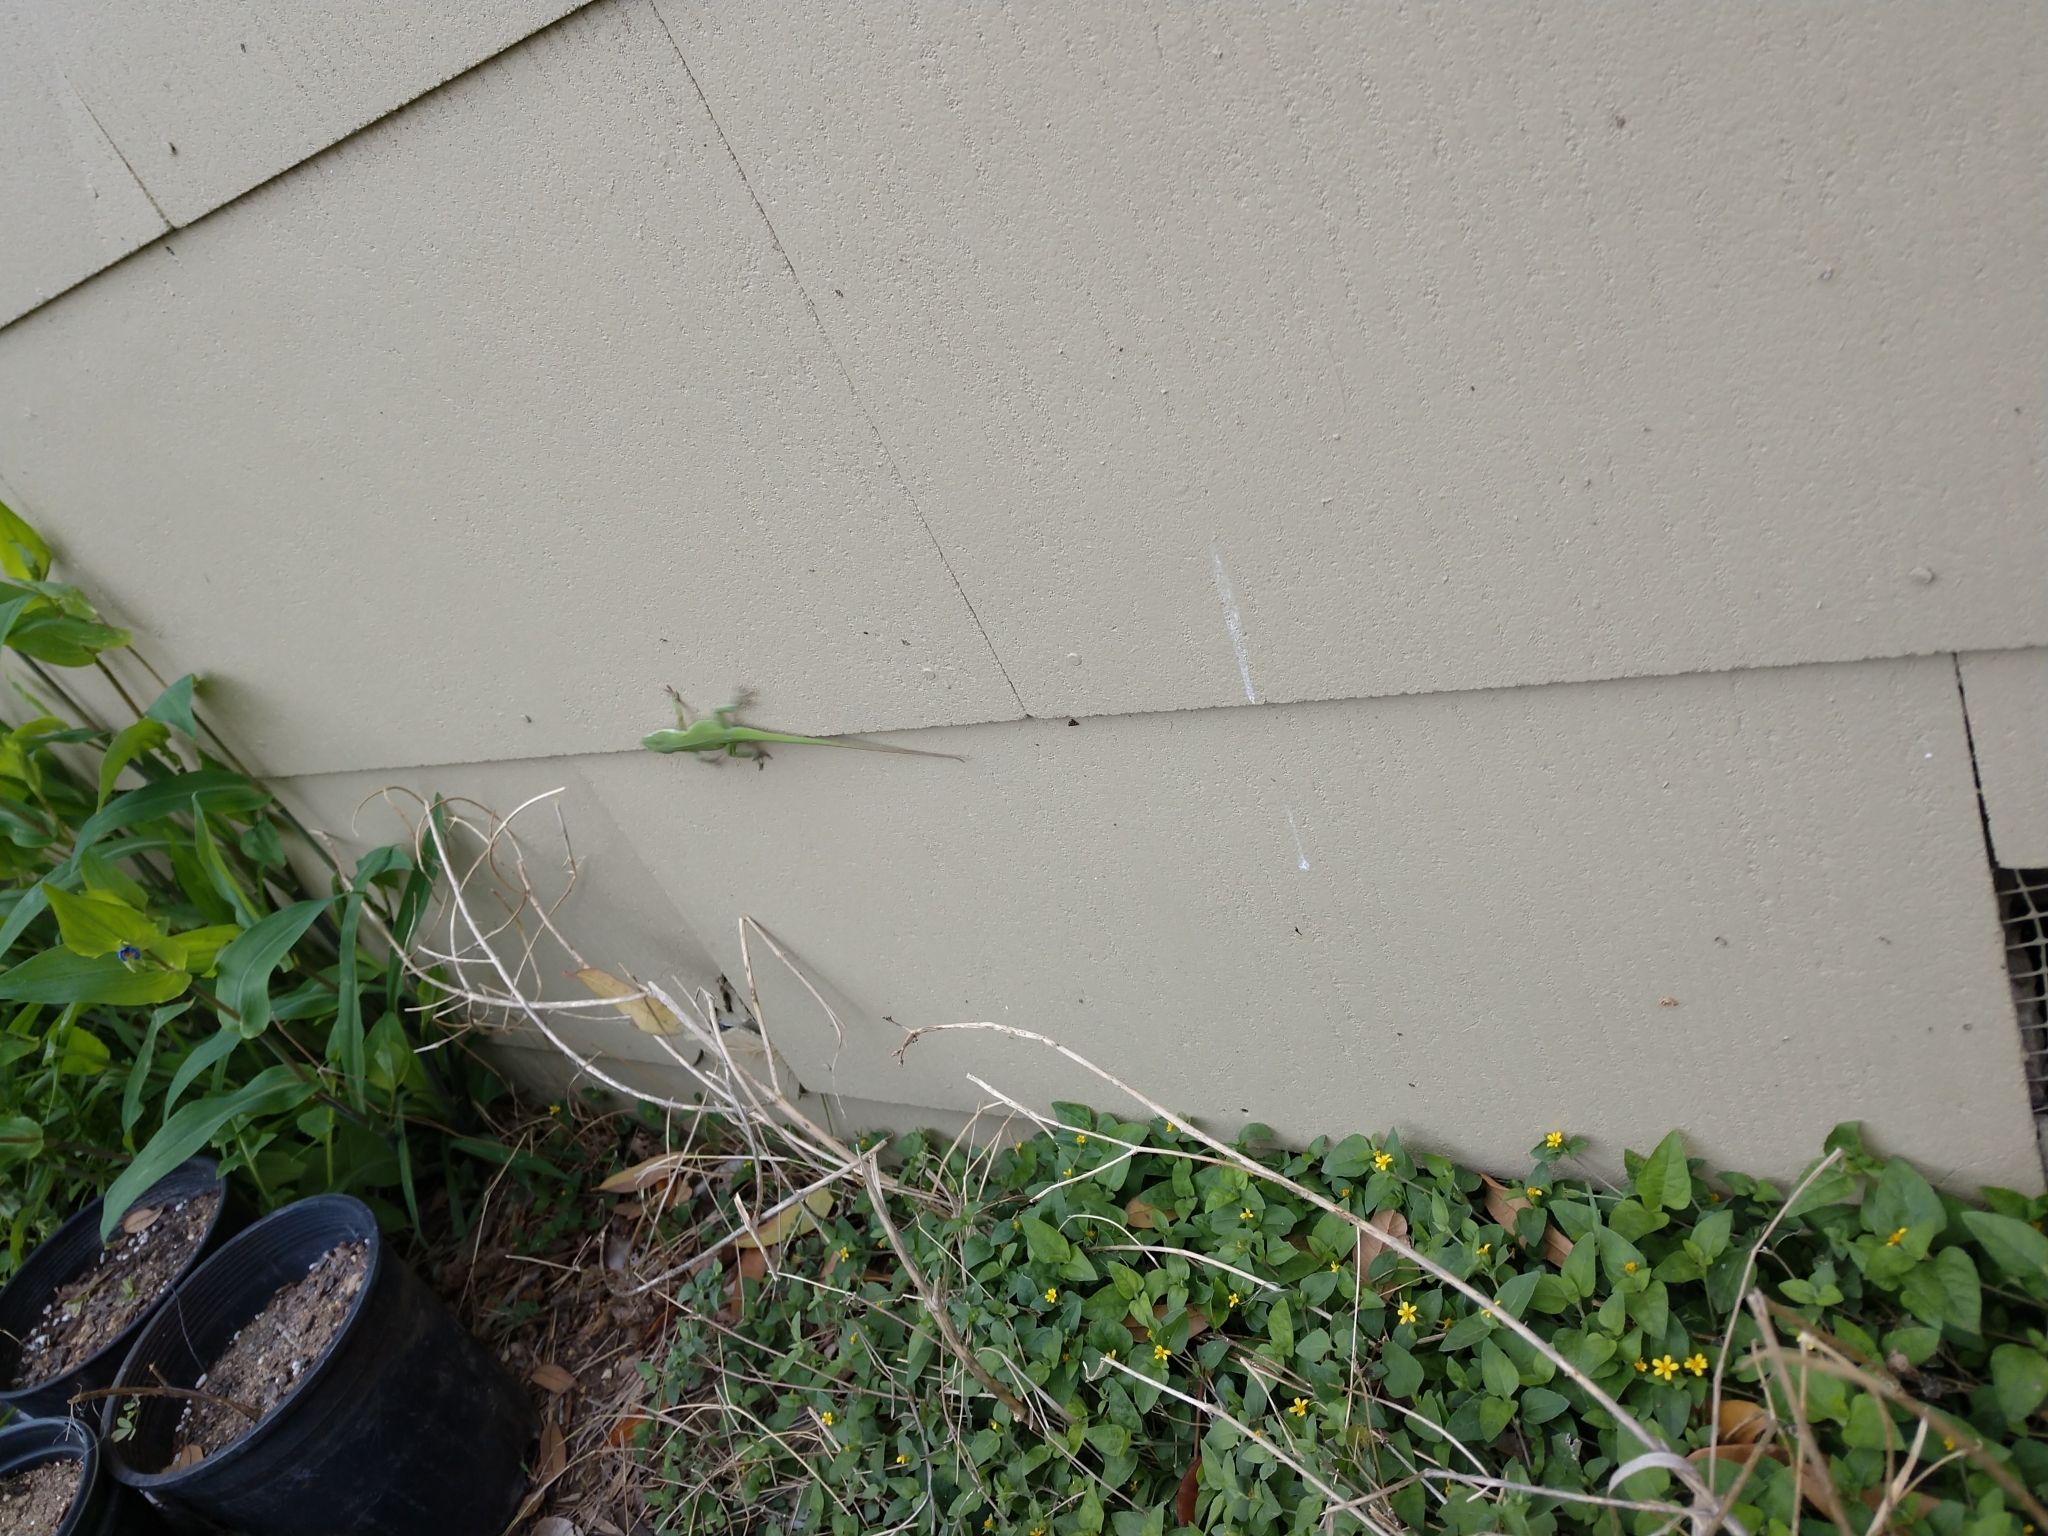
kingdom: Animalia
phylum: Chordata
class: Squamata
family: Dactyloidae
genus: Anolis
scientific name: Anolis carolinensis
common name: Green anole
